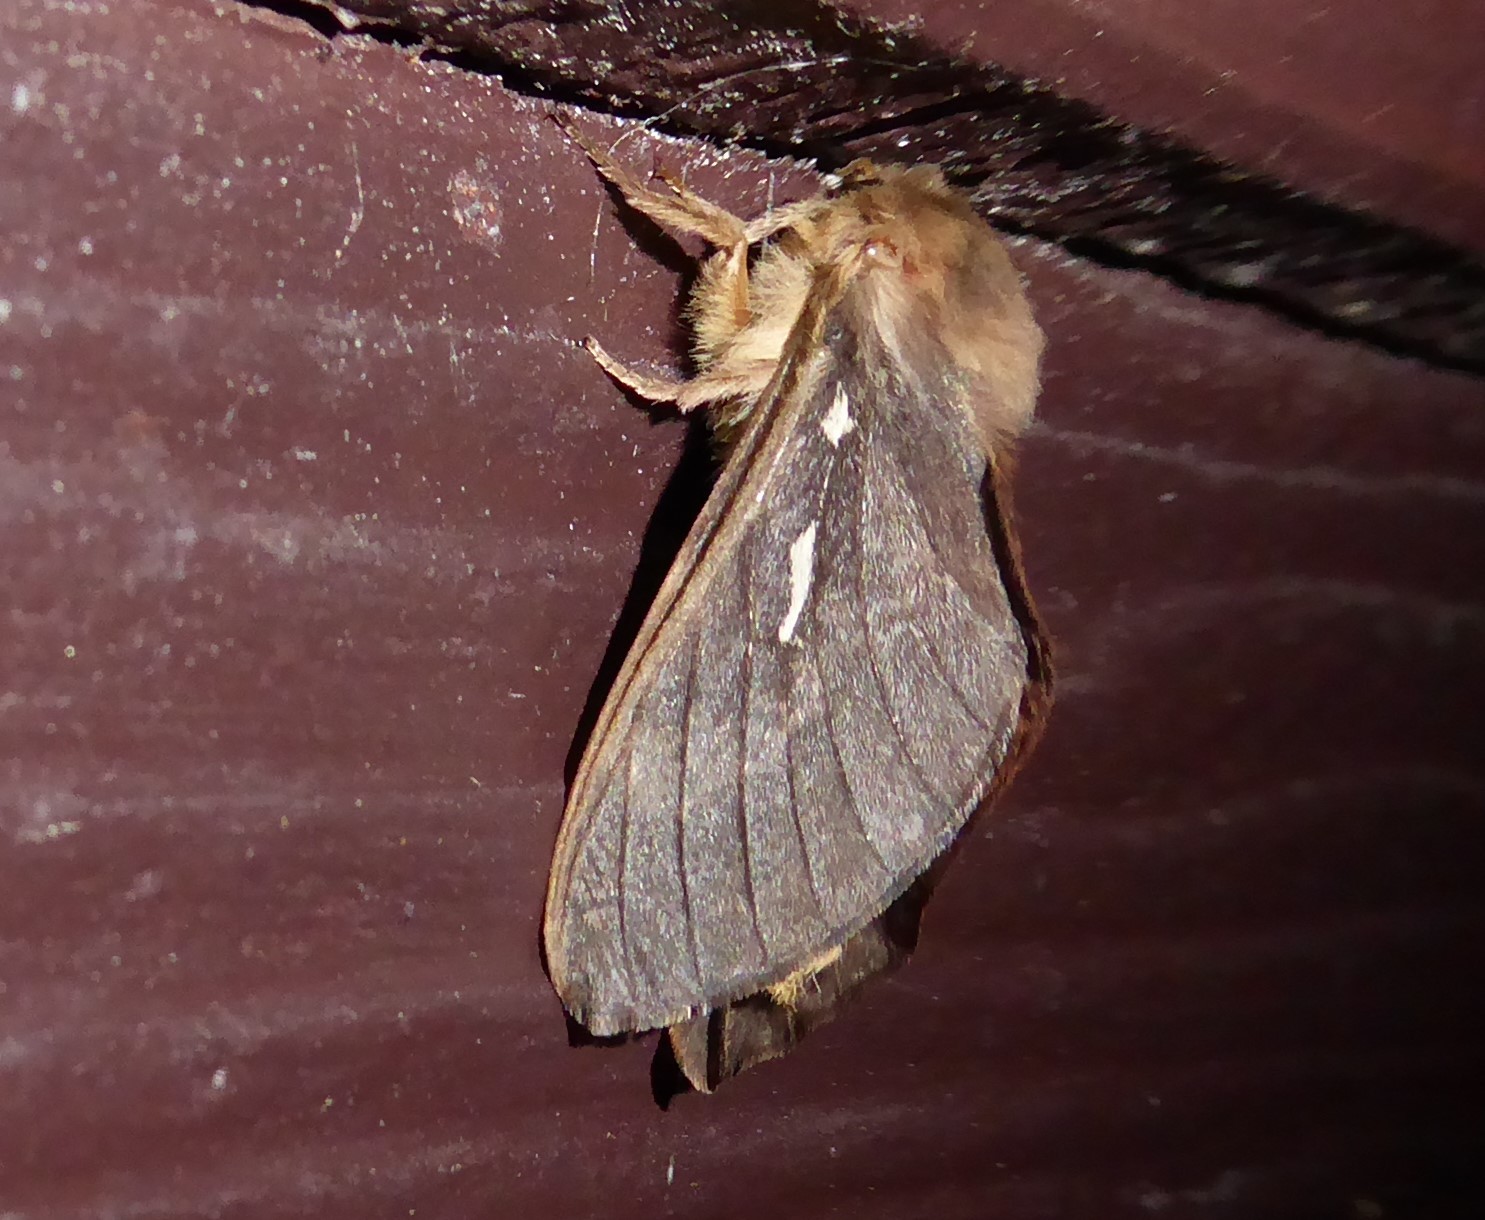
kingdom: Animalia
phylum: Arthropoda
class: Insecta
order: Lepidoptera
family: Hepialidae
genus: Wiseana
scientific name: Wiseana copularis
